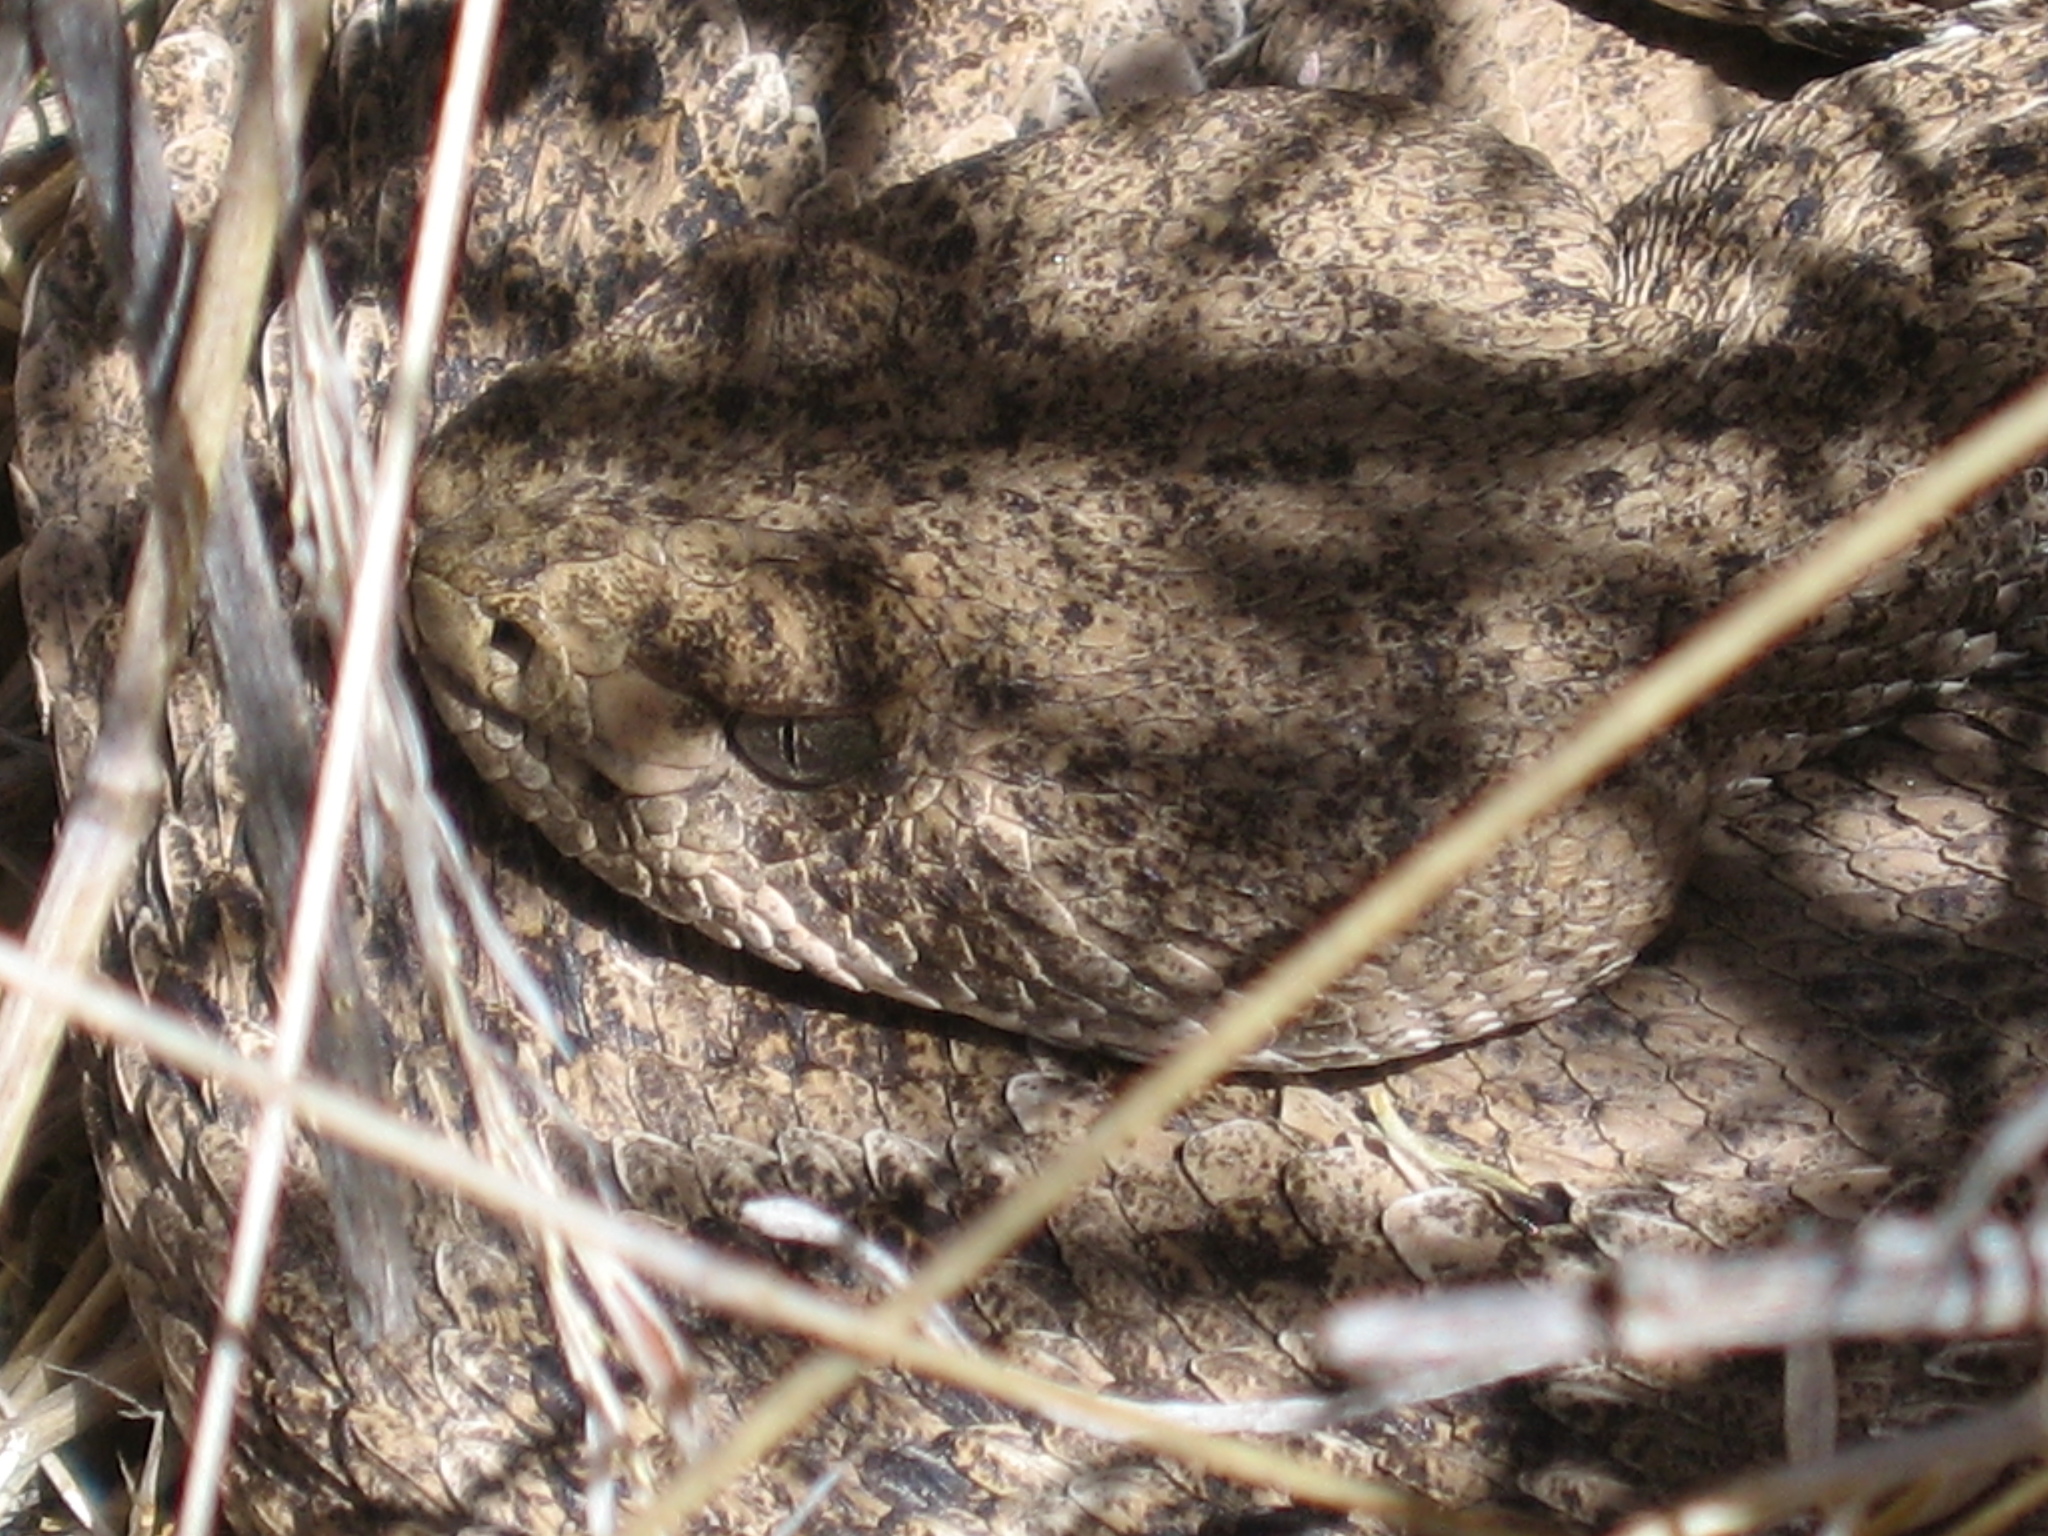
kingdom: Animalia
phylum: Chordata
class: Squamata
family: Viperidae
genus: Crotalus
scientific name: Crotalus atrox
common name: Western diamond-backed rattlesnake
